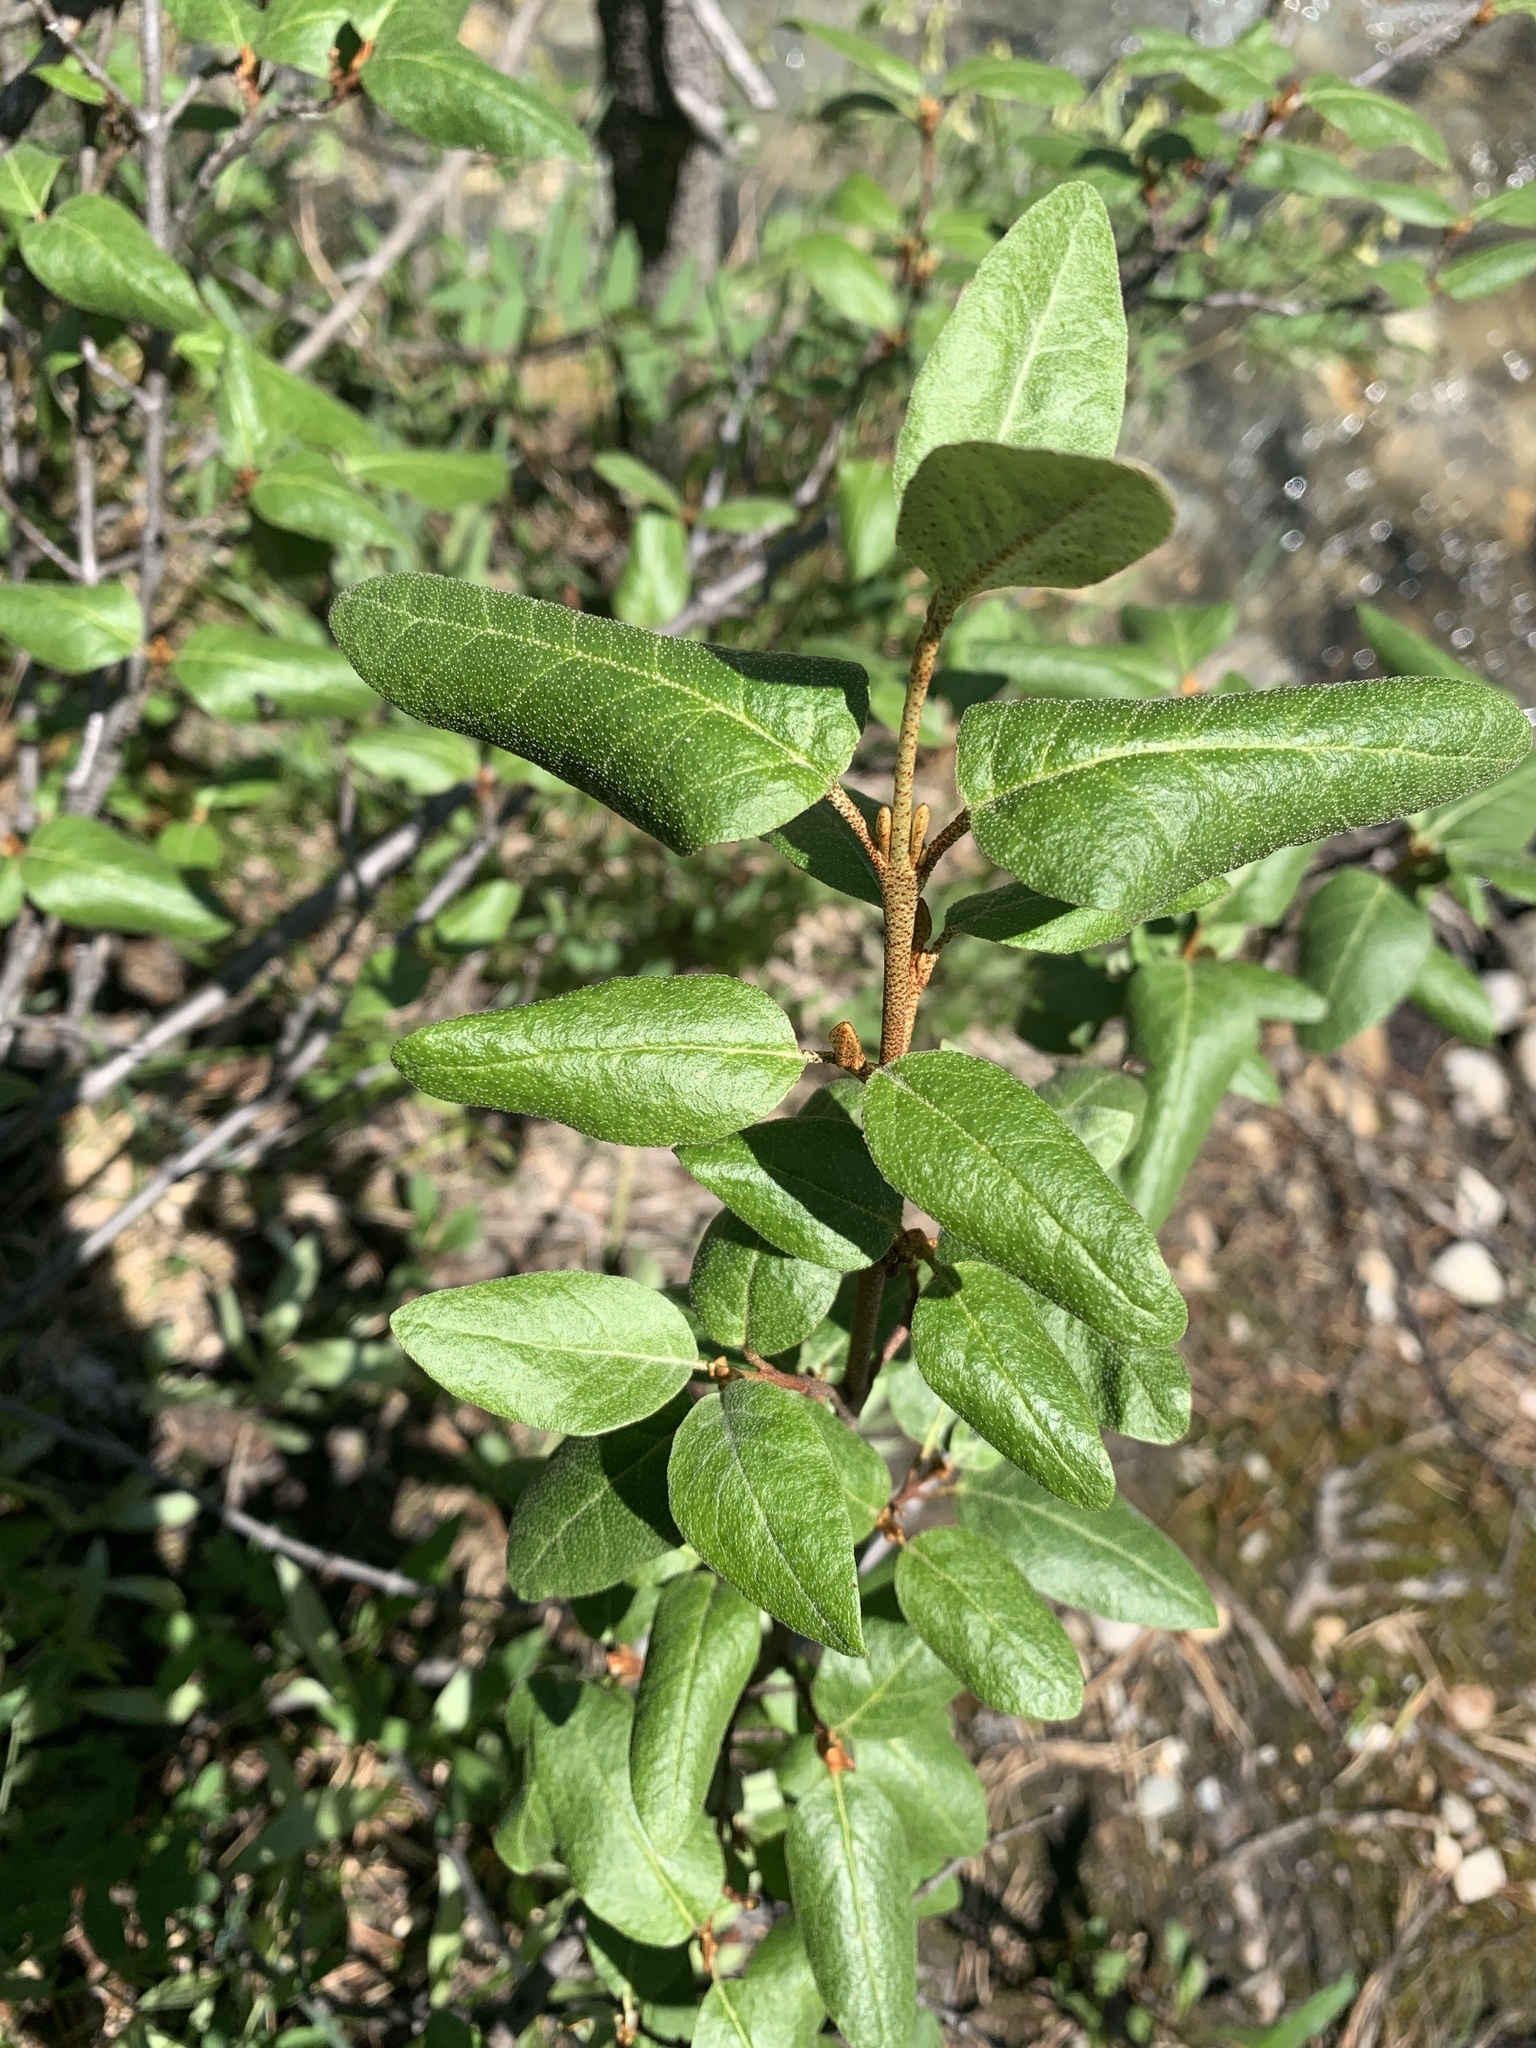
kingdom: Plantae
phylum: Tracheophyta
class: Magnoliopsida
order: Rosales
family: Elaeagnaceae
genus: Shepherdia
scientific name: Shepherdia canadensis
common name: Soapberry
